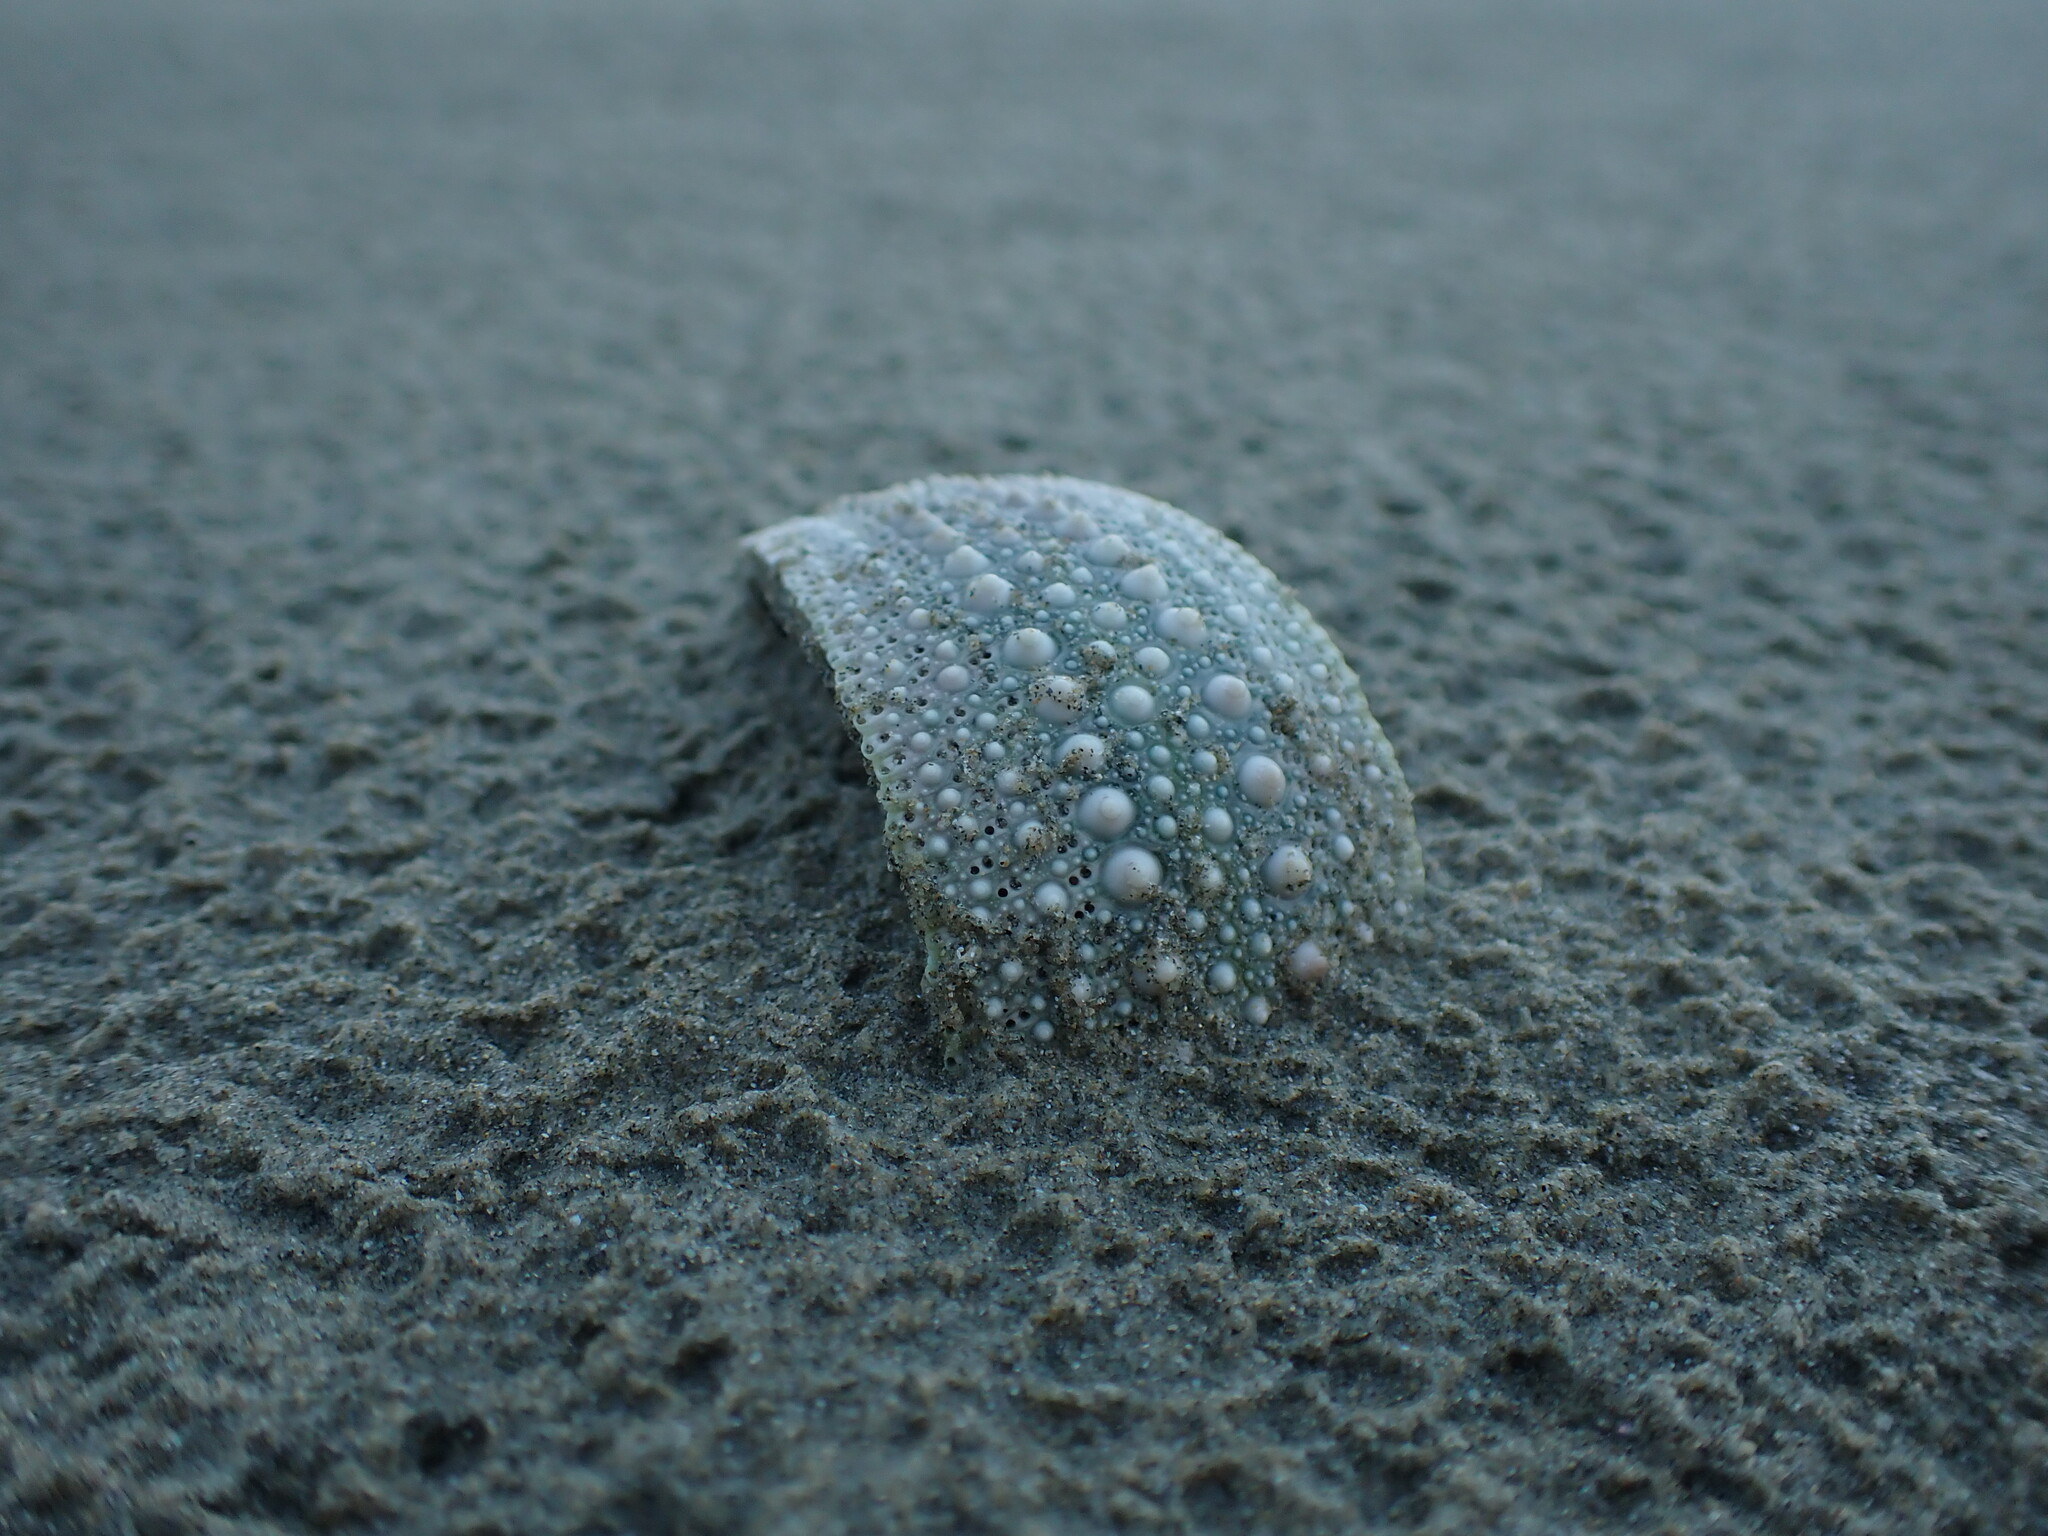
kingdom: Animalia
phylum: Echinodermata
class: Echinoidea
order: Camarodonta
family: Echinometridae
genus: Evechinus
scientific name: Evechinus chloroticus
